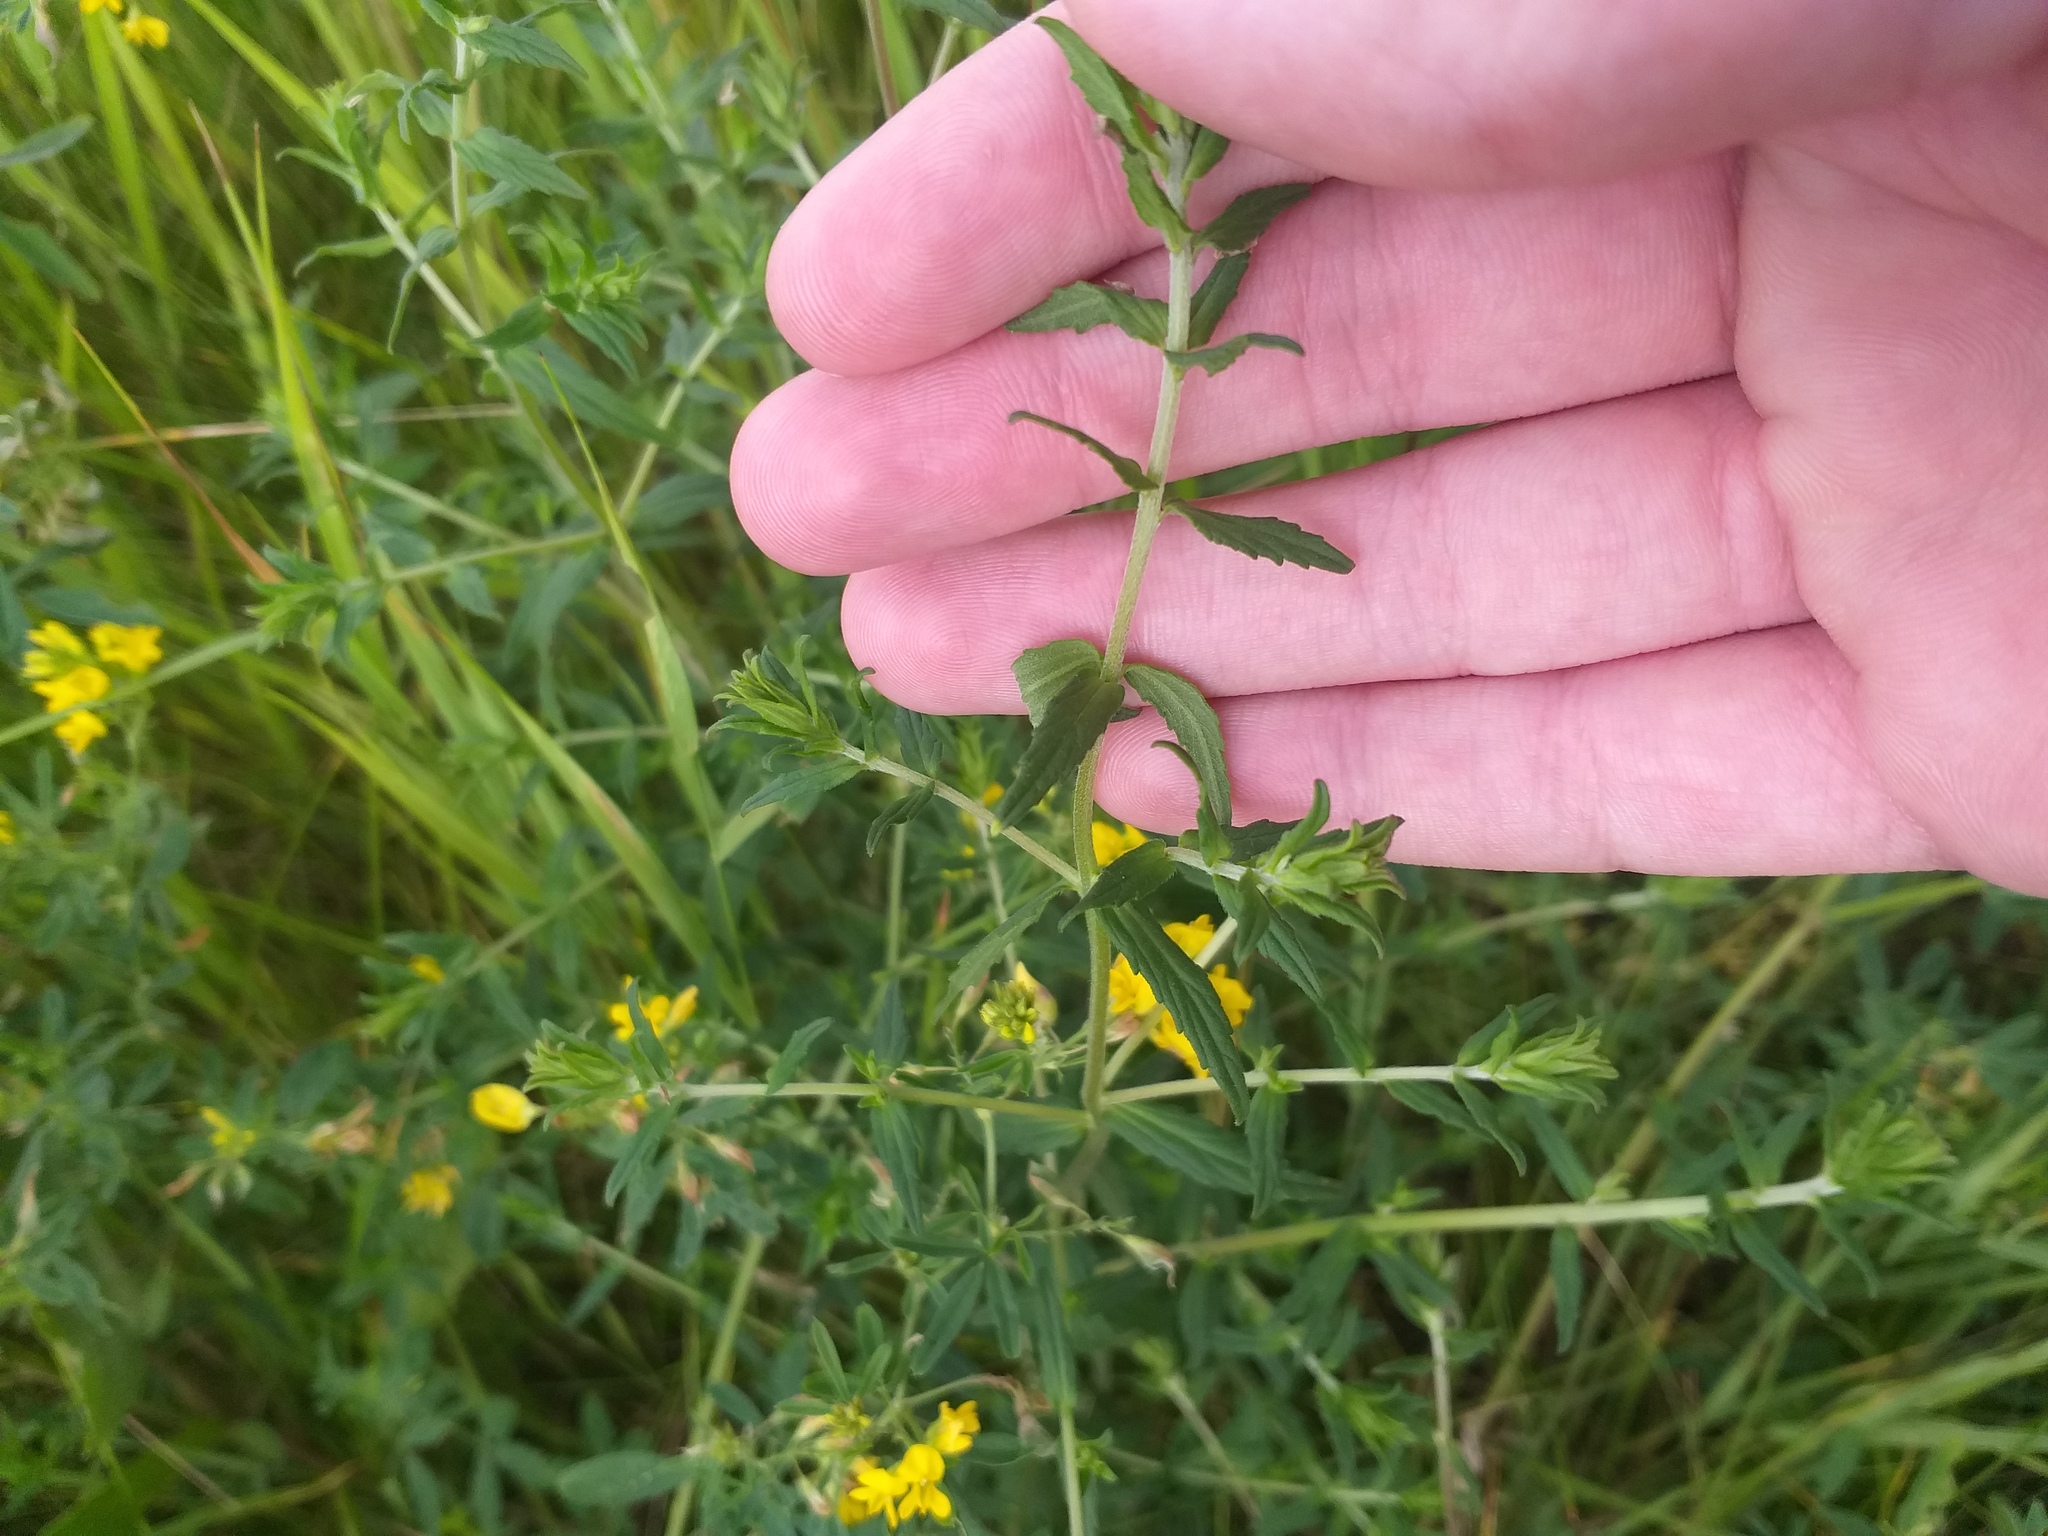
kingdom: Plantae
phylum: Tracheophyta
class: Magnoliopsida
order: Lamiales
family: Orobanchaceae
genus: Odontites
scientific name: Odontites vulgaris
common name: Broomrape
